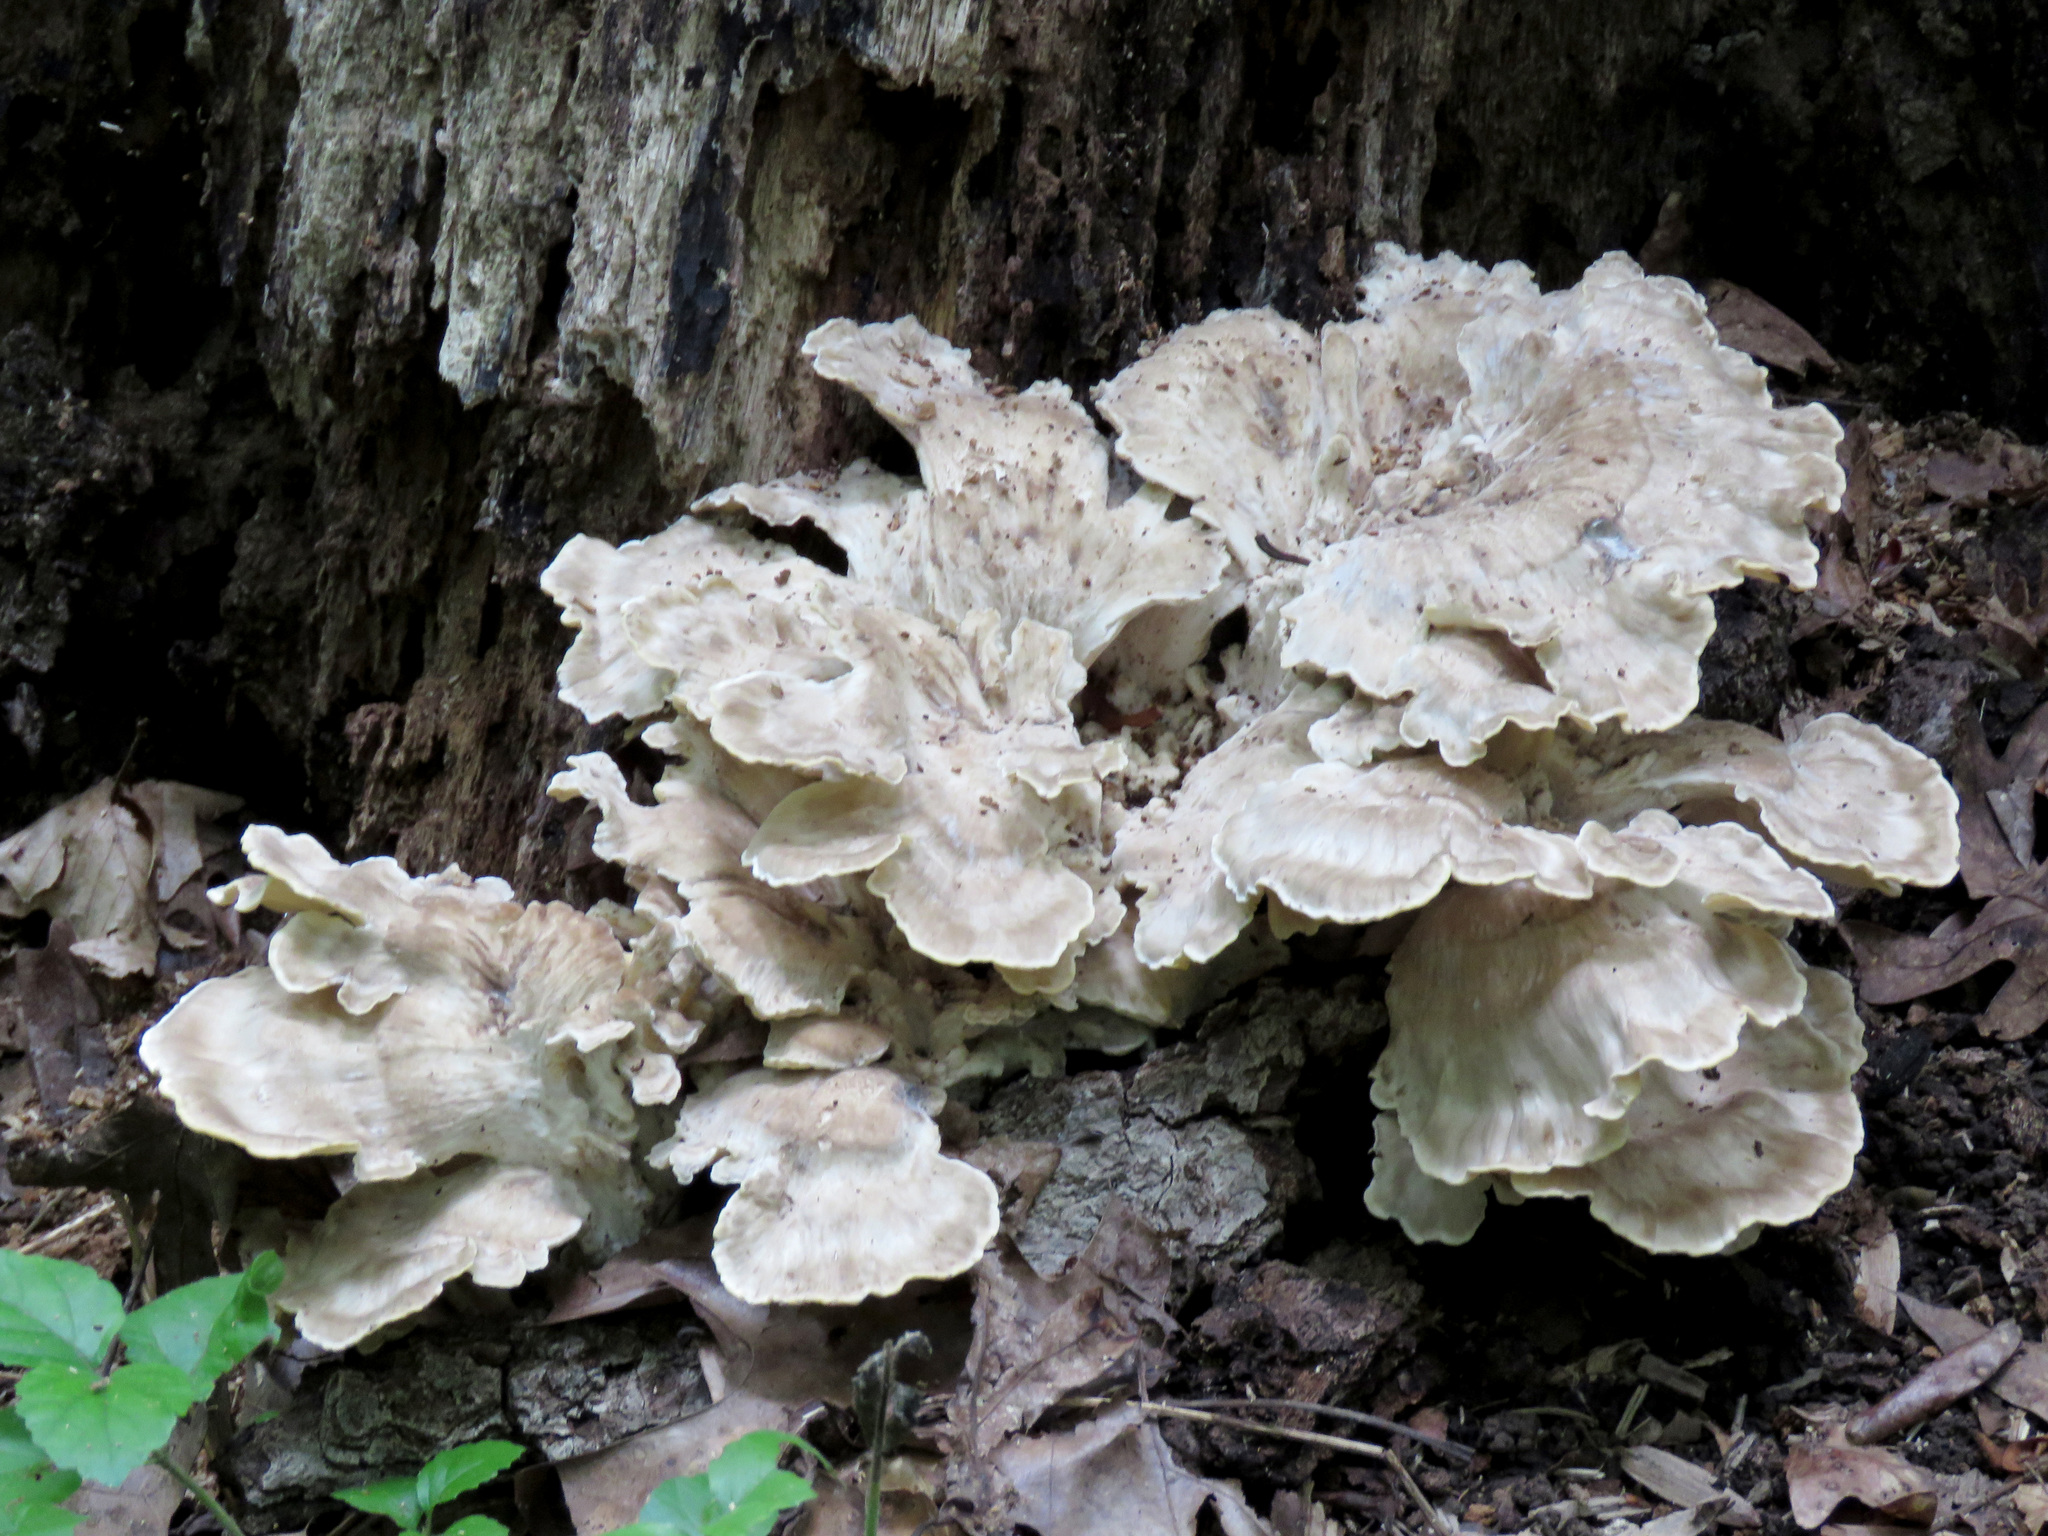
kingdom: Fungi
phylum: Basidiomycota
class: Agaricomycetes
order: Polyporales
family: Meripilaceae
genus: Meripilus
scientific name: Meripilus sumstinei
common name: Black-staining polypore
